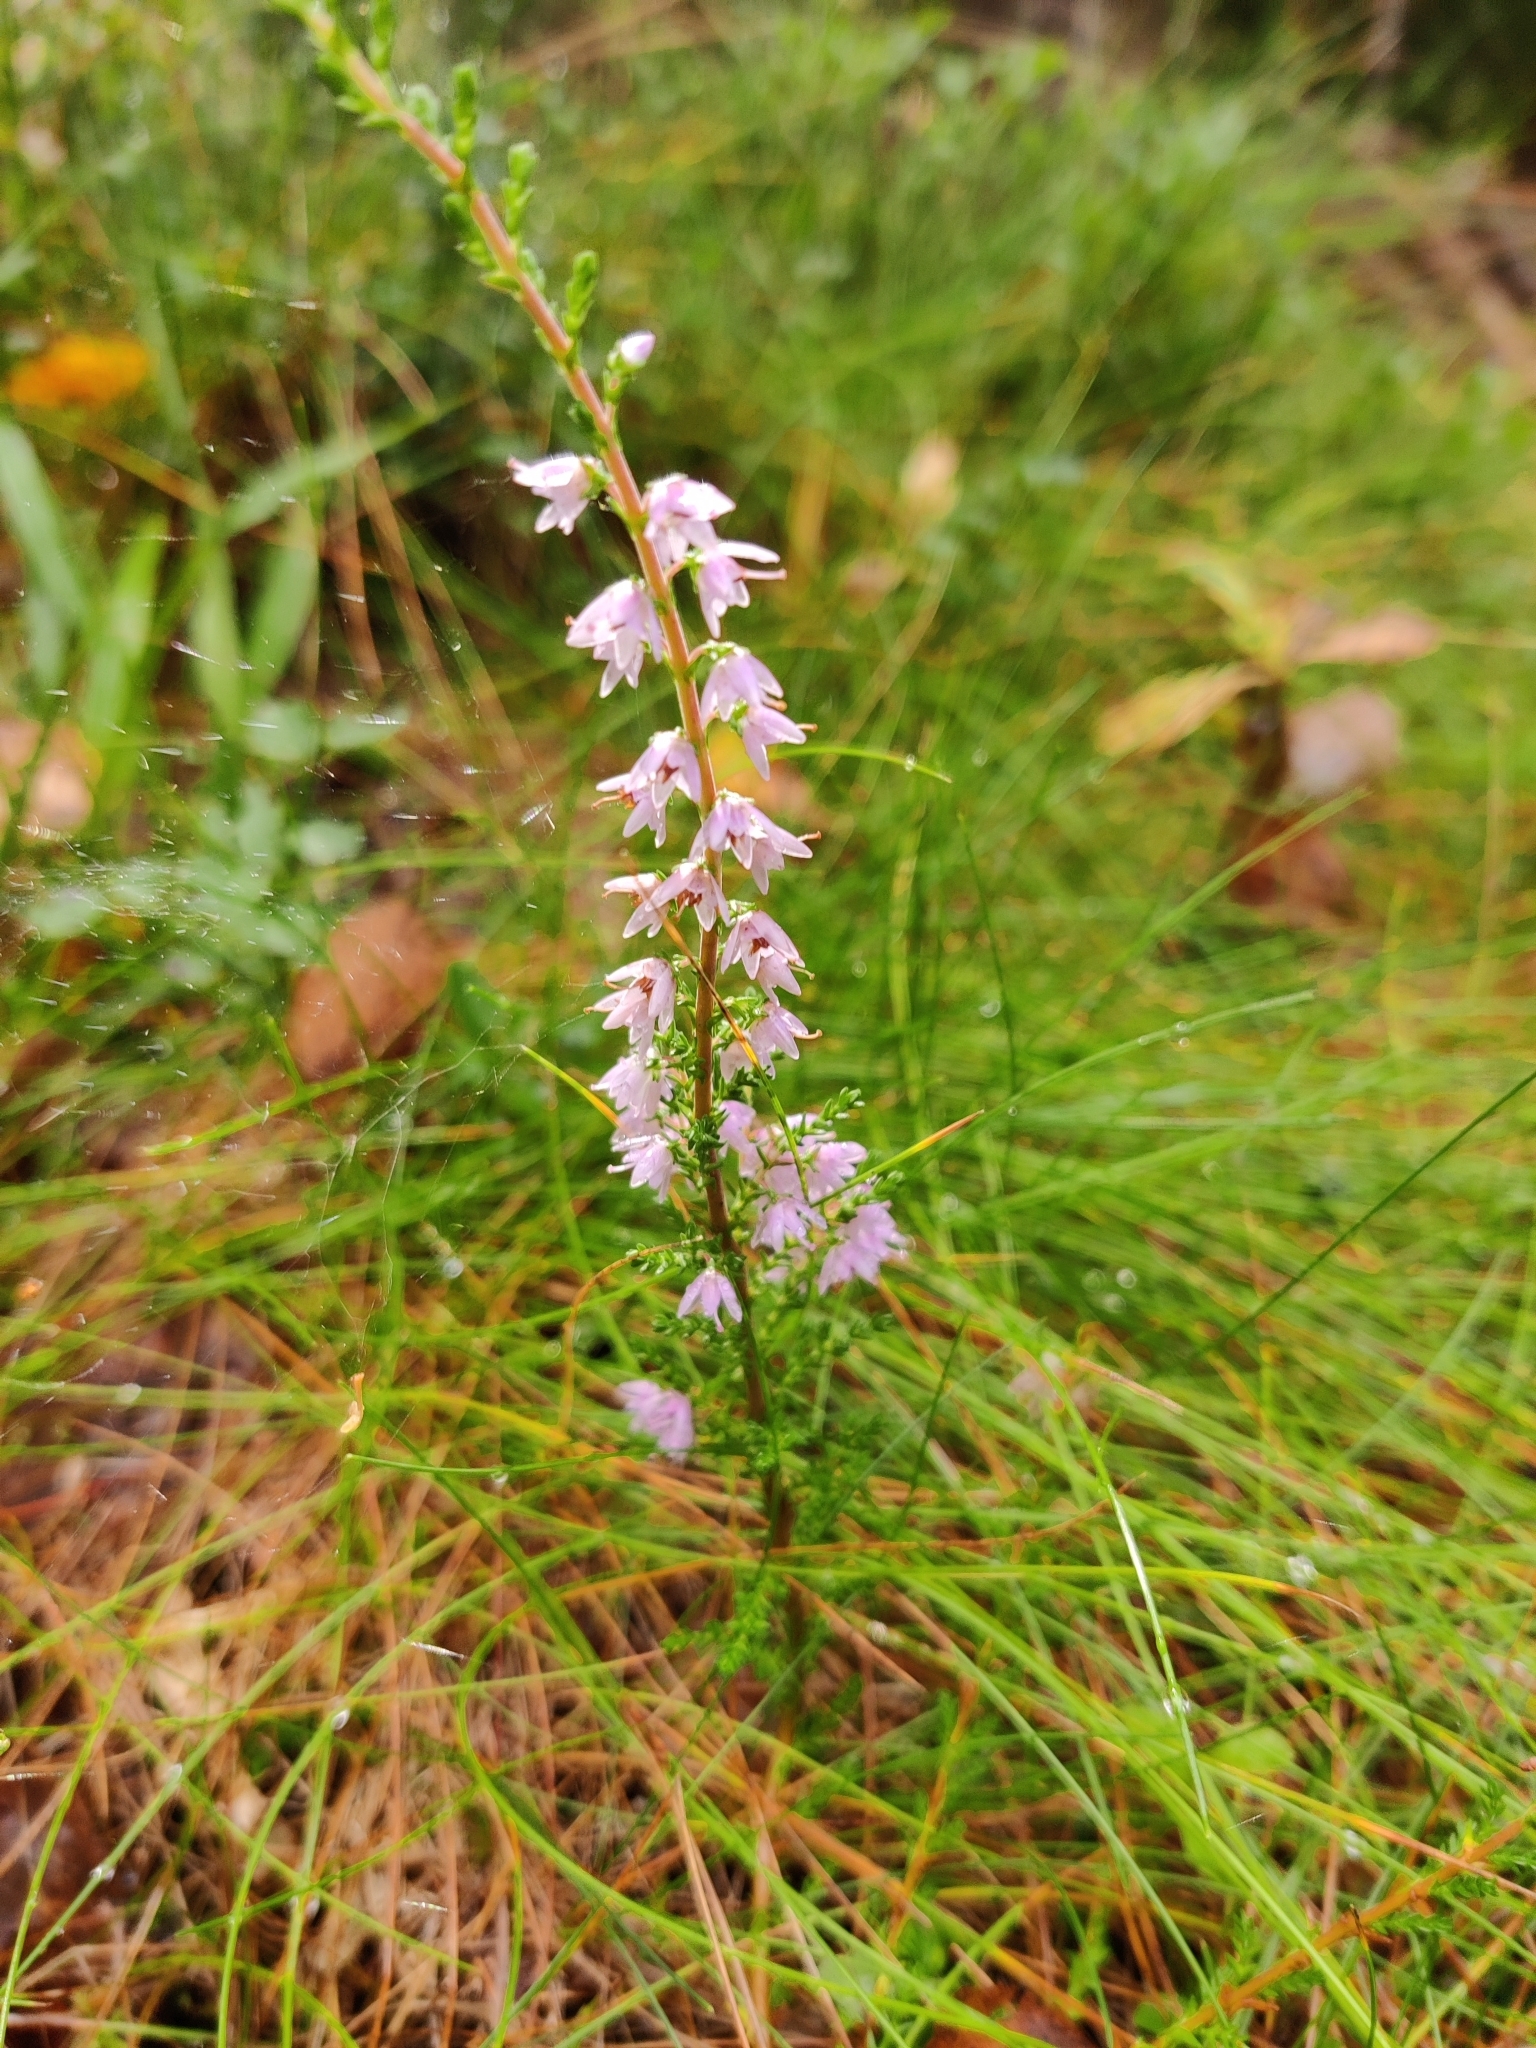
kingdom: Plantae
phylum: Tracheophyta
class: Magnoliopsida
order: Ericales
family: Ericaceae
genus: Calluna
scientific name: Calluna vulgaris
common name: Heather
